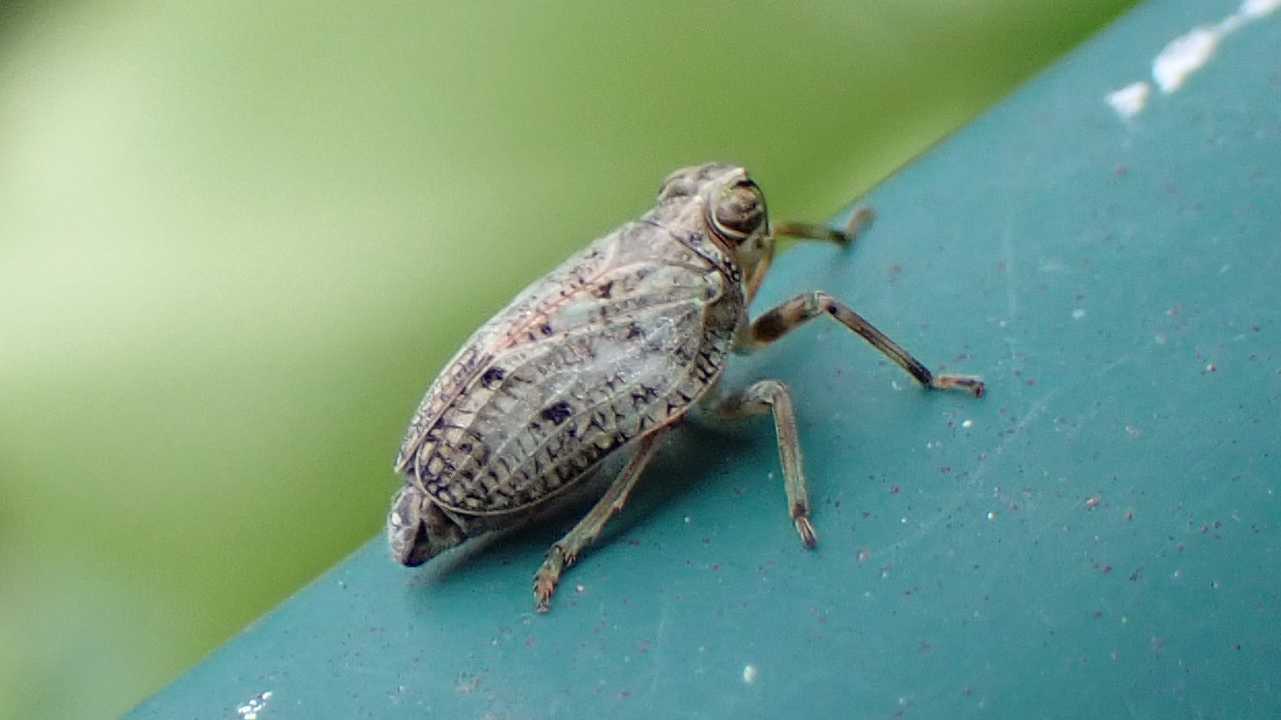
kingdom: Animalia
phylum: Arthropoda
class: Insecta
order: Hemiptera
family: Issidae
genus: Issus
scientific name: Issus coleoptratus
